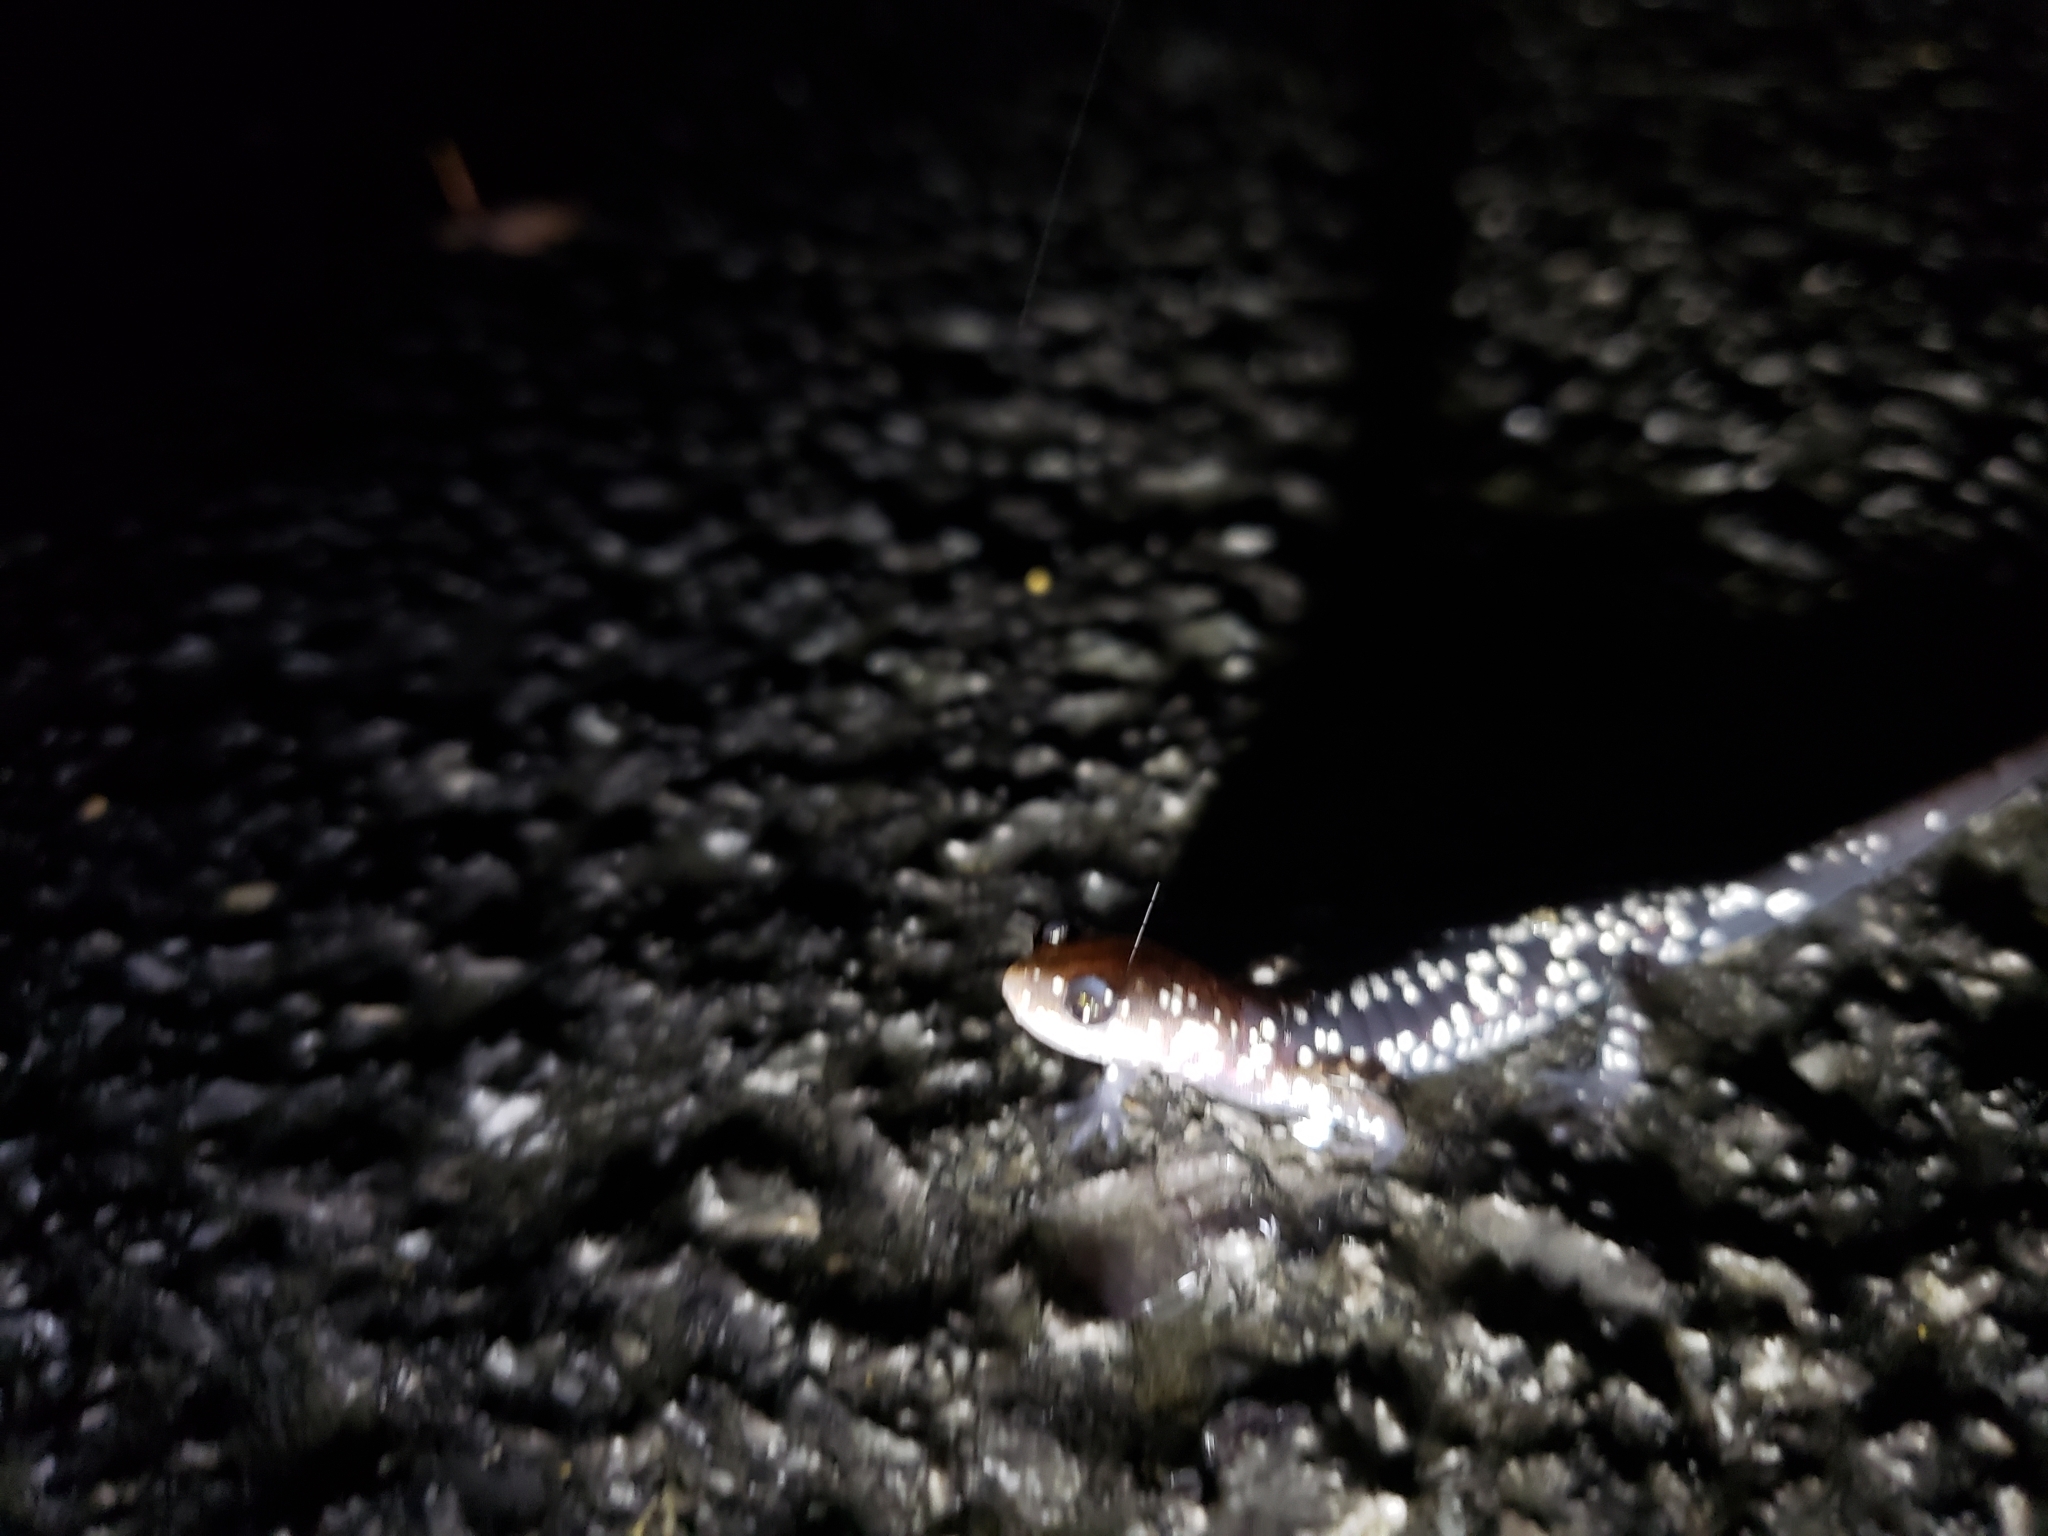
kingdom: Animalia
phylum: Chordata
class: Amphibia
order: Caudata
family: Plethodontidae
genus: Plethodon
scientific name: Plethodon glutinosus
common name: Northern slimy salamander
